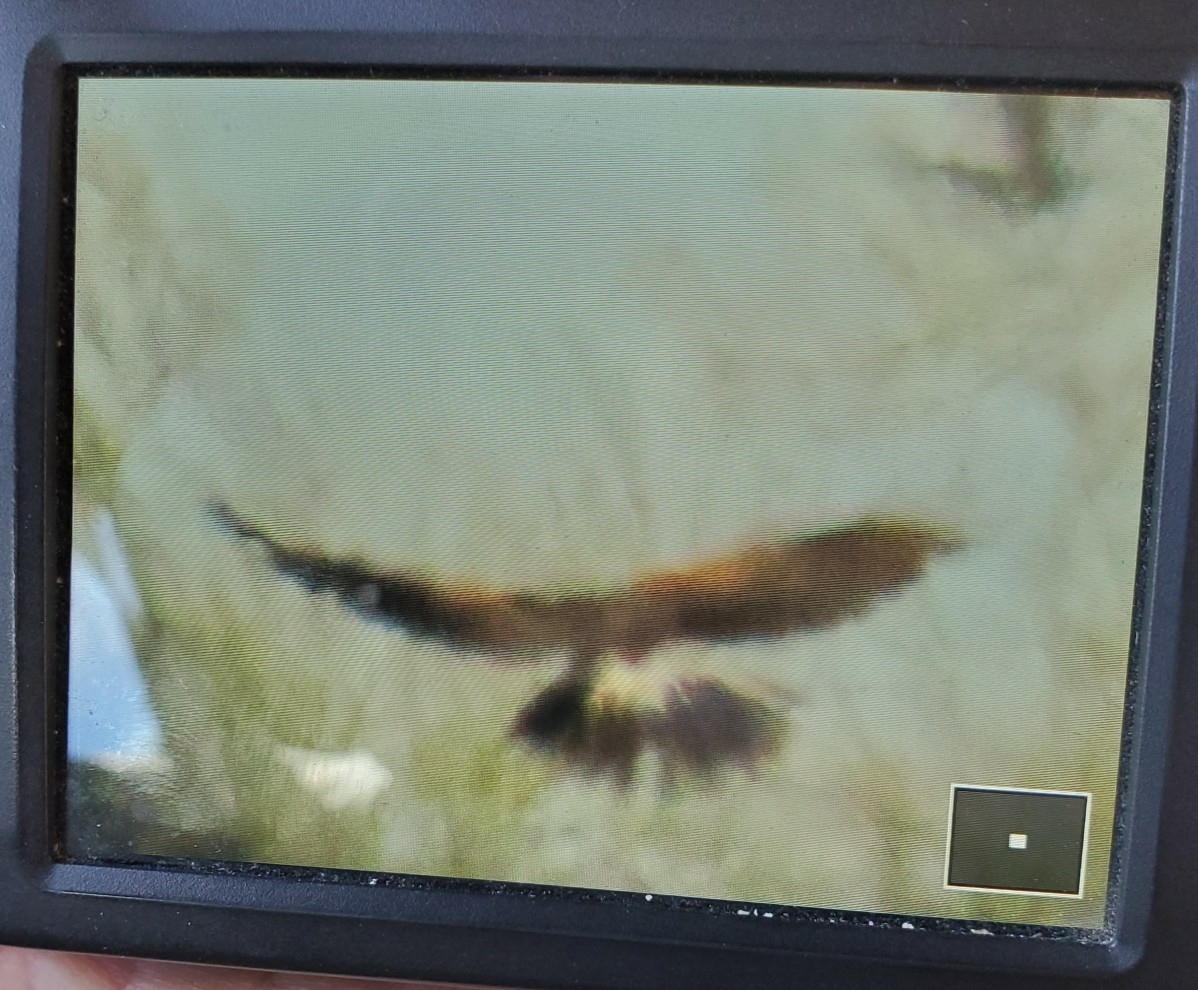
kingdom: Animalia
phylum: Chordata
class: Aves
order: Accipitriformes
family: Accipitridae
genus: Parabuteo
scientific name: Parabuteo unicinctus
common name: Harris's hawk
